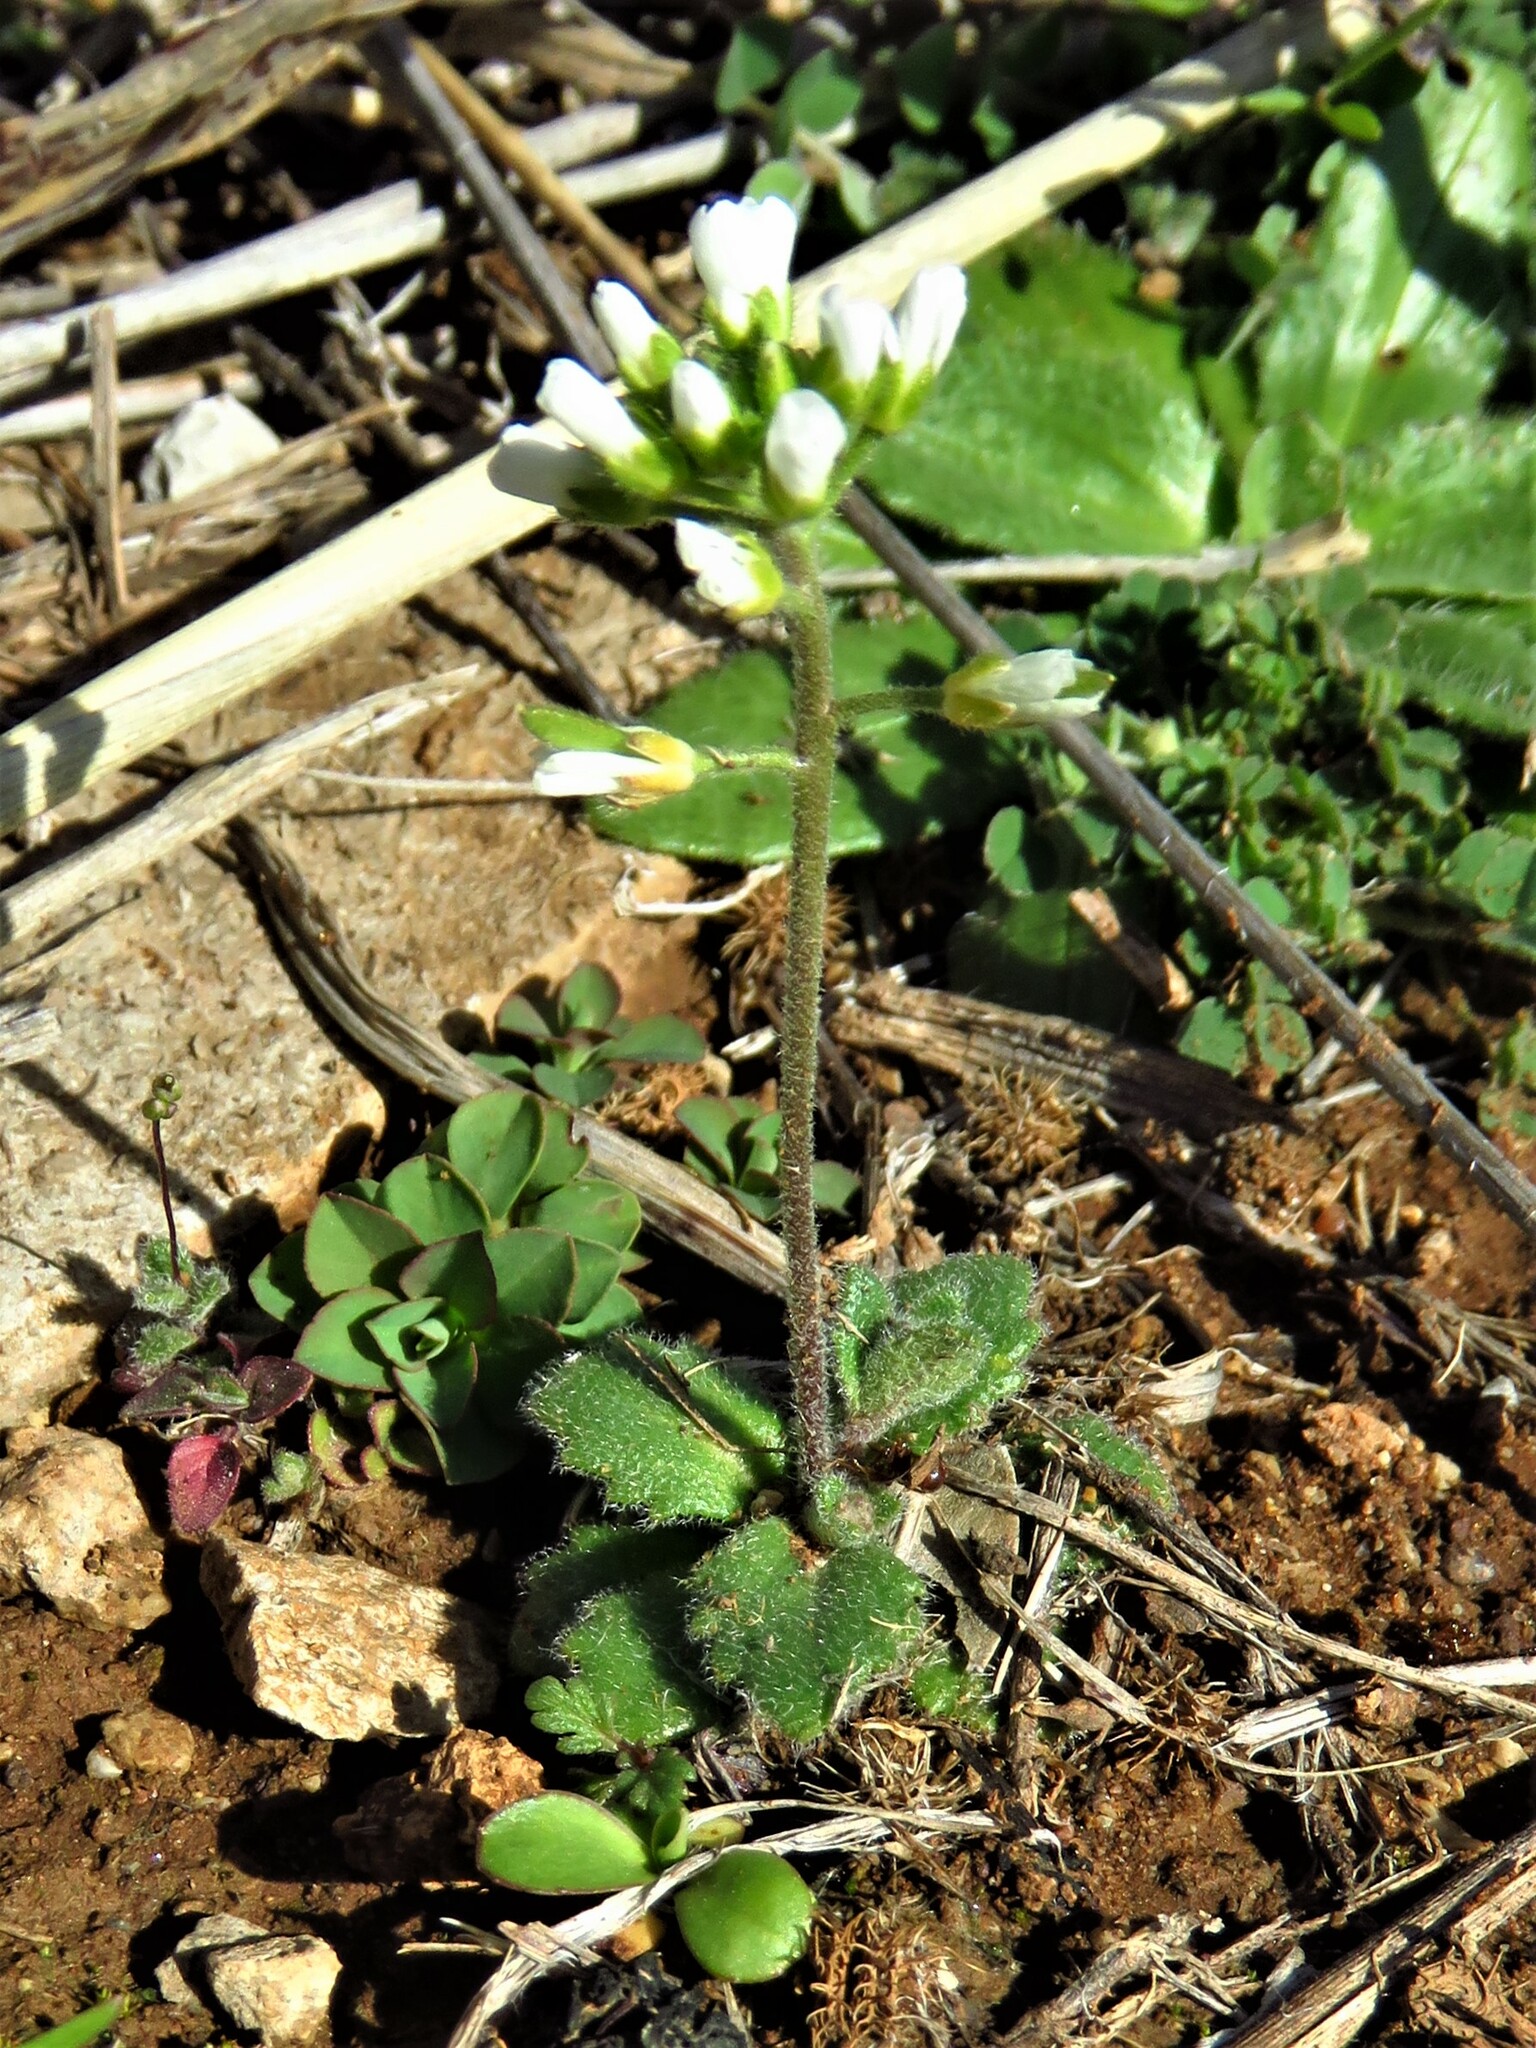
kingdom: Plantae
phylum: Tracheophyta
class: Magnoliopsida
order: Brassicales
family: Brassicaceae
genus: Tomostima
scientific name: Tomostima cuneifolia
